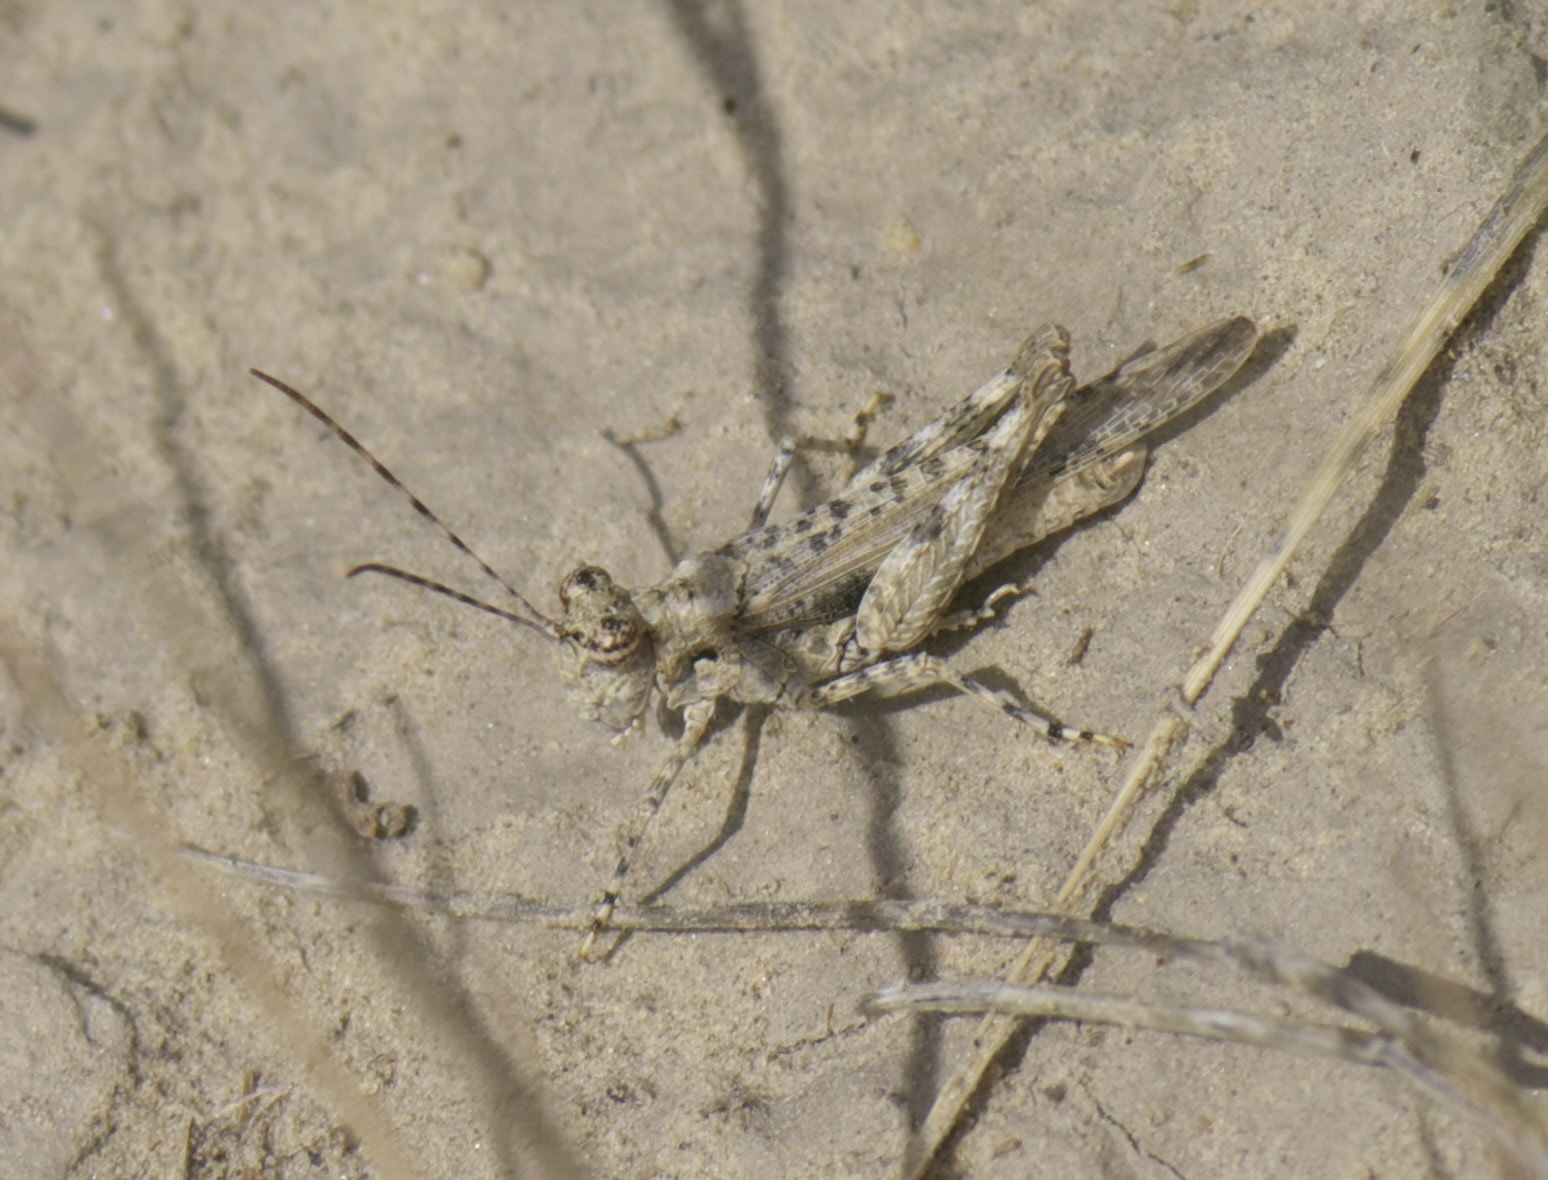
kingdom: Animalia
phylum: Arthropoda
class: Insecta
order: Orthoptera
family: Acrididae
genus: Derotmema
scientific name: Derotmema haydenii
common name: Hayden's grasshopper
